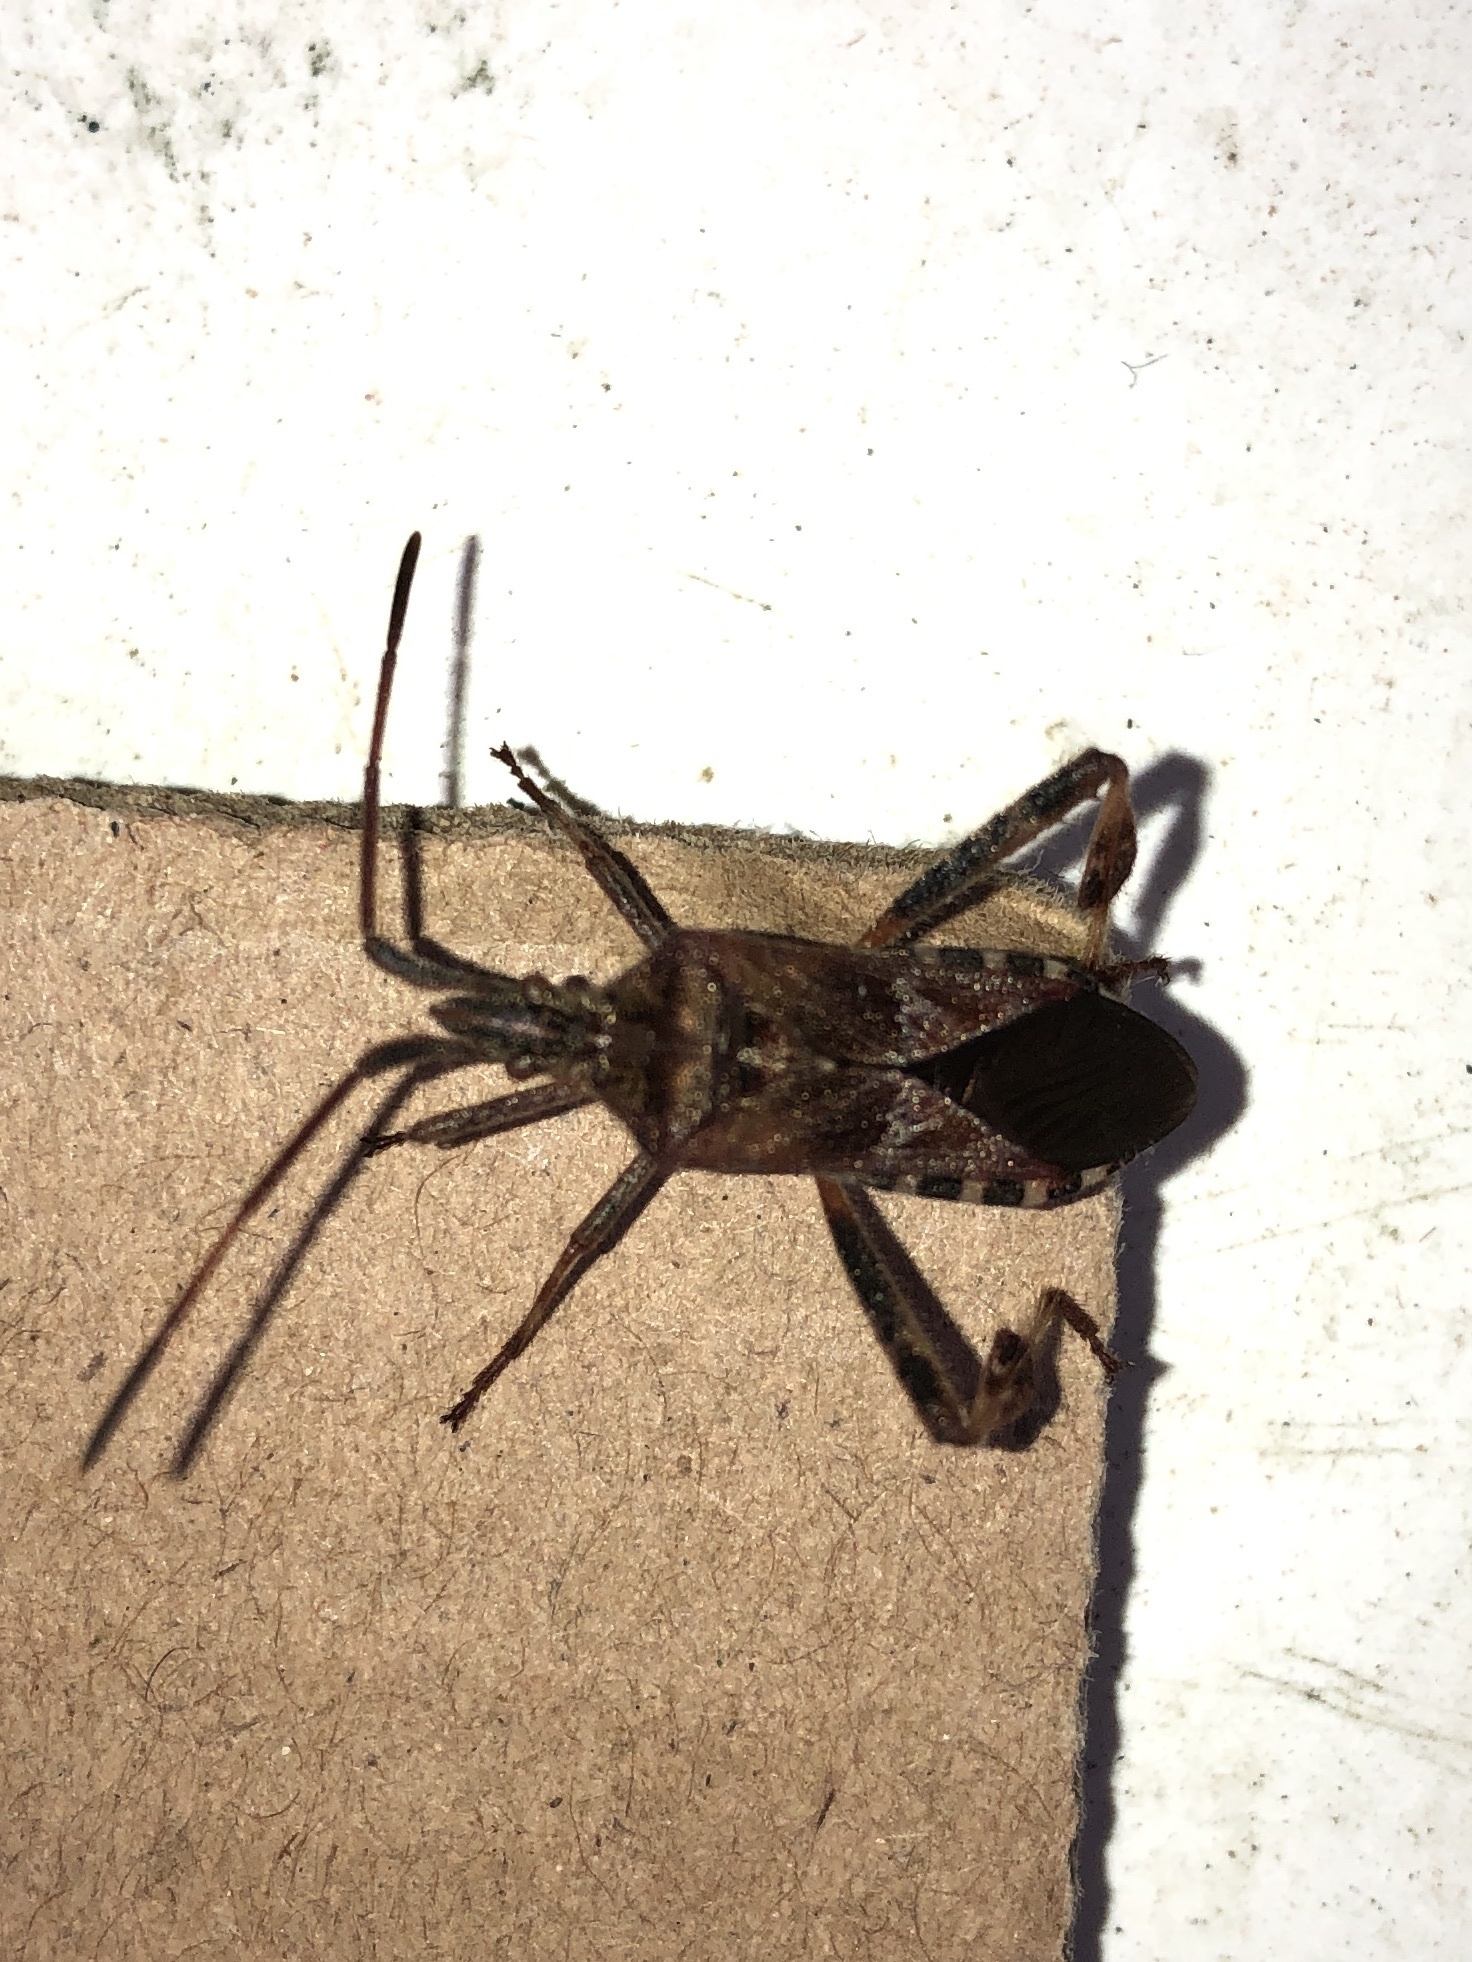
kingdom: Animalia
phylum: Arthropoda
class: Insecta
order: Hemiptera
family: Coreidae
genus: Leptoglossus
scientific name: Leptoglossus occidentalis
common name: Western conifer-seed bug
